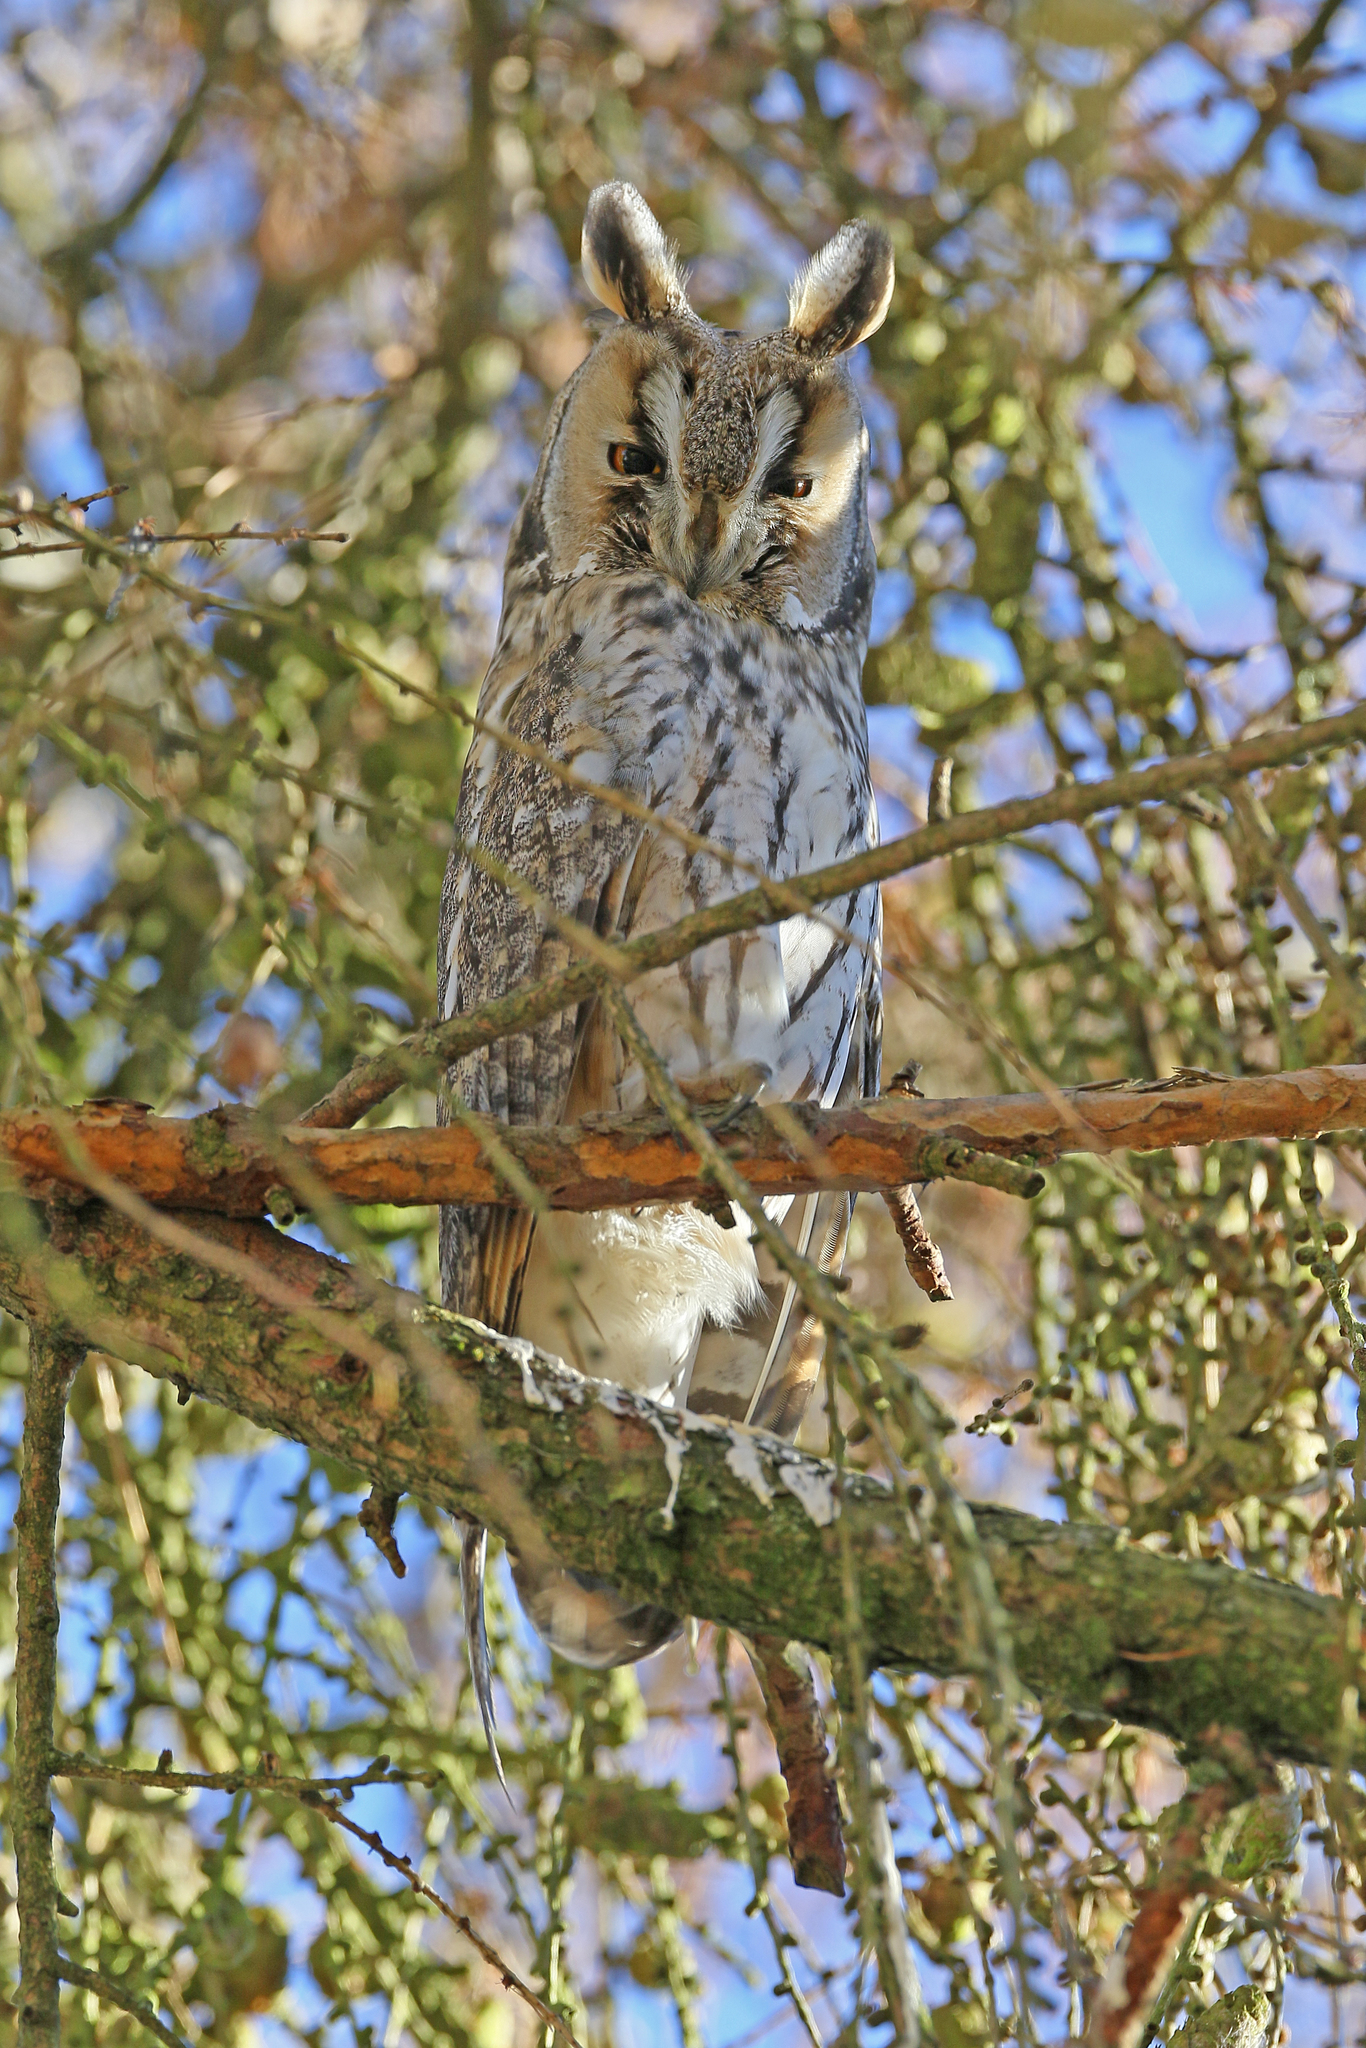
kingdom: Animalia
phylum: Chordata
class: Aves
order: Strigiformes
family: Strigidae
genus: Asio
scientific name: Asio otus
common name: Long-eared owl
